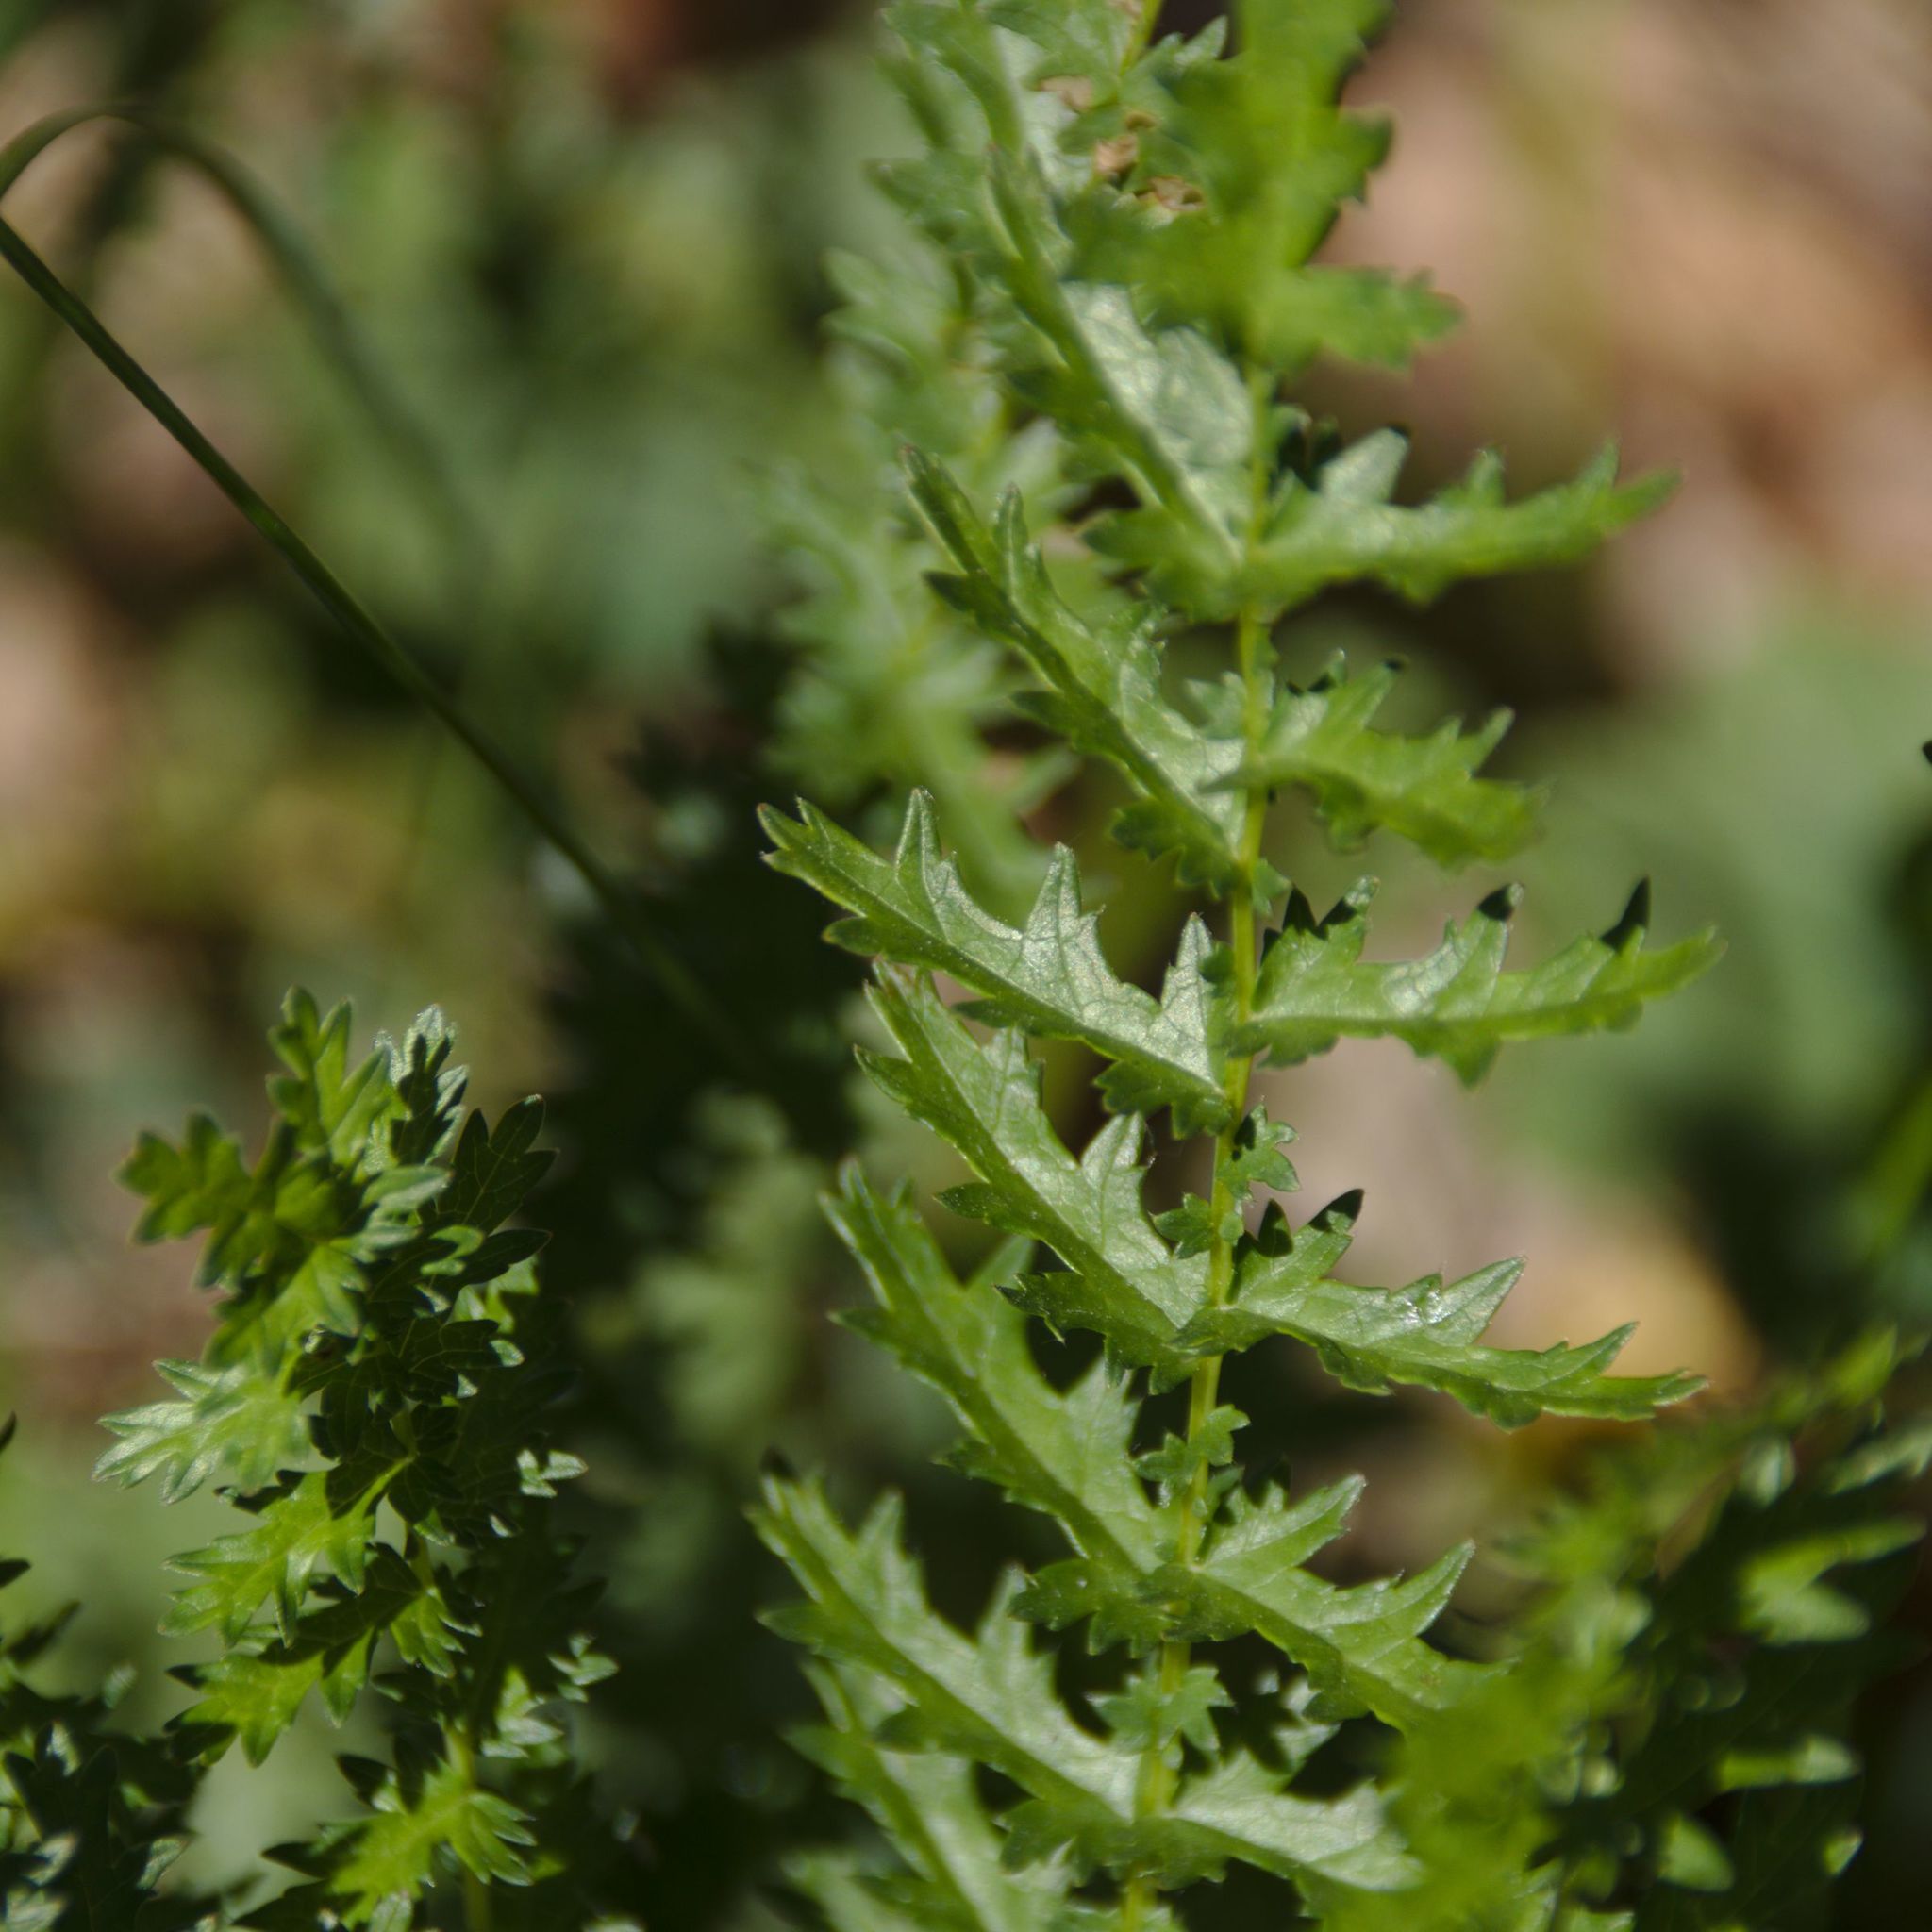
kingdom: Plantae
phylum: Tracheophyta
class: Magnoliopsida
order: Rosales
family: Rosaceae
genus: Filipendula
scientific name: Filipendula vulgaris
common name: Dropwort
